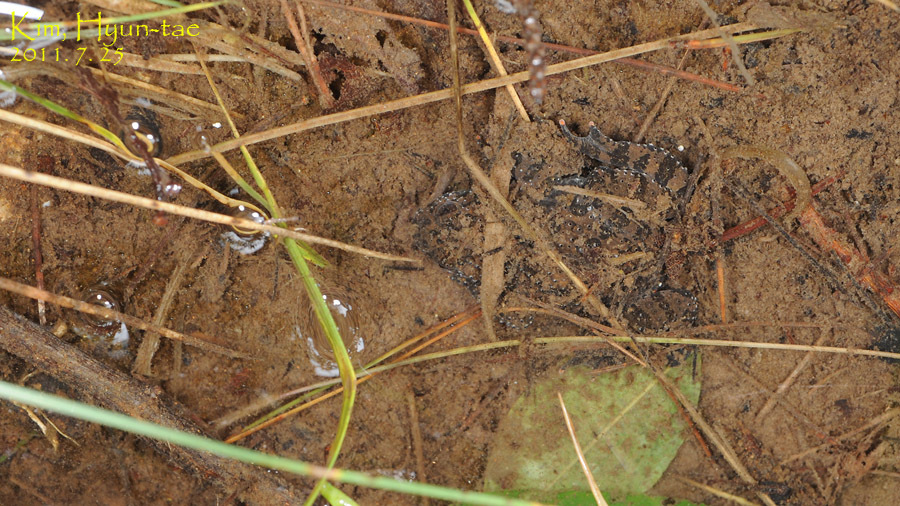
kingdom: Animalia
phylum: Chordata
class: Amphibia
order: Anura
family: Bombinatoridae
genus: Bombina
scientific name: Bombina orientalis
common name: Oriental firebelly toad
